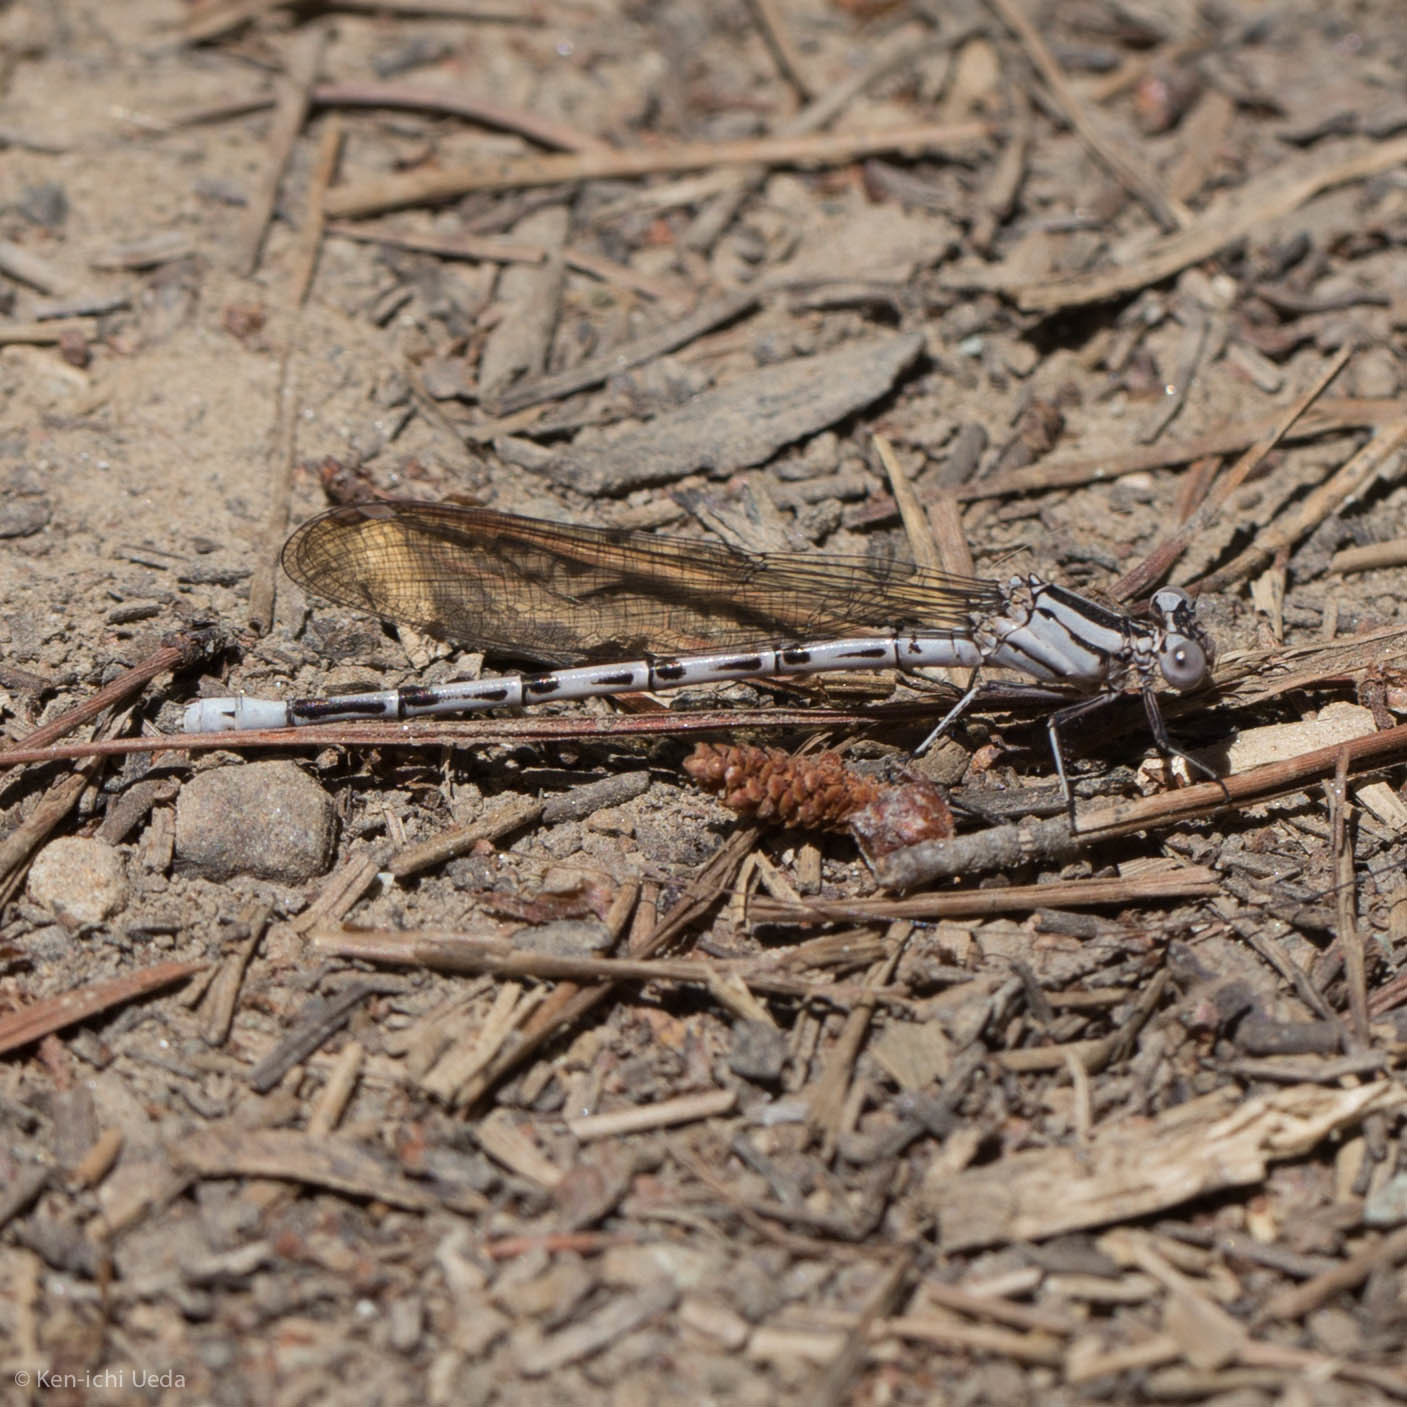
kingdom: Animalia
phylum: Arthropoda
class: Insecta
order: Odonata
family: Coenagrionidae
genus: Argia
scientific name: Argia vivida
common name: Vivid dancer
